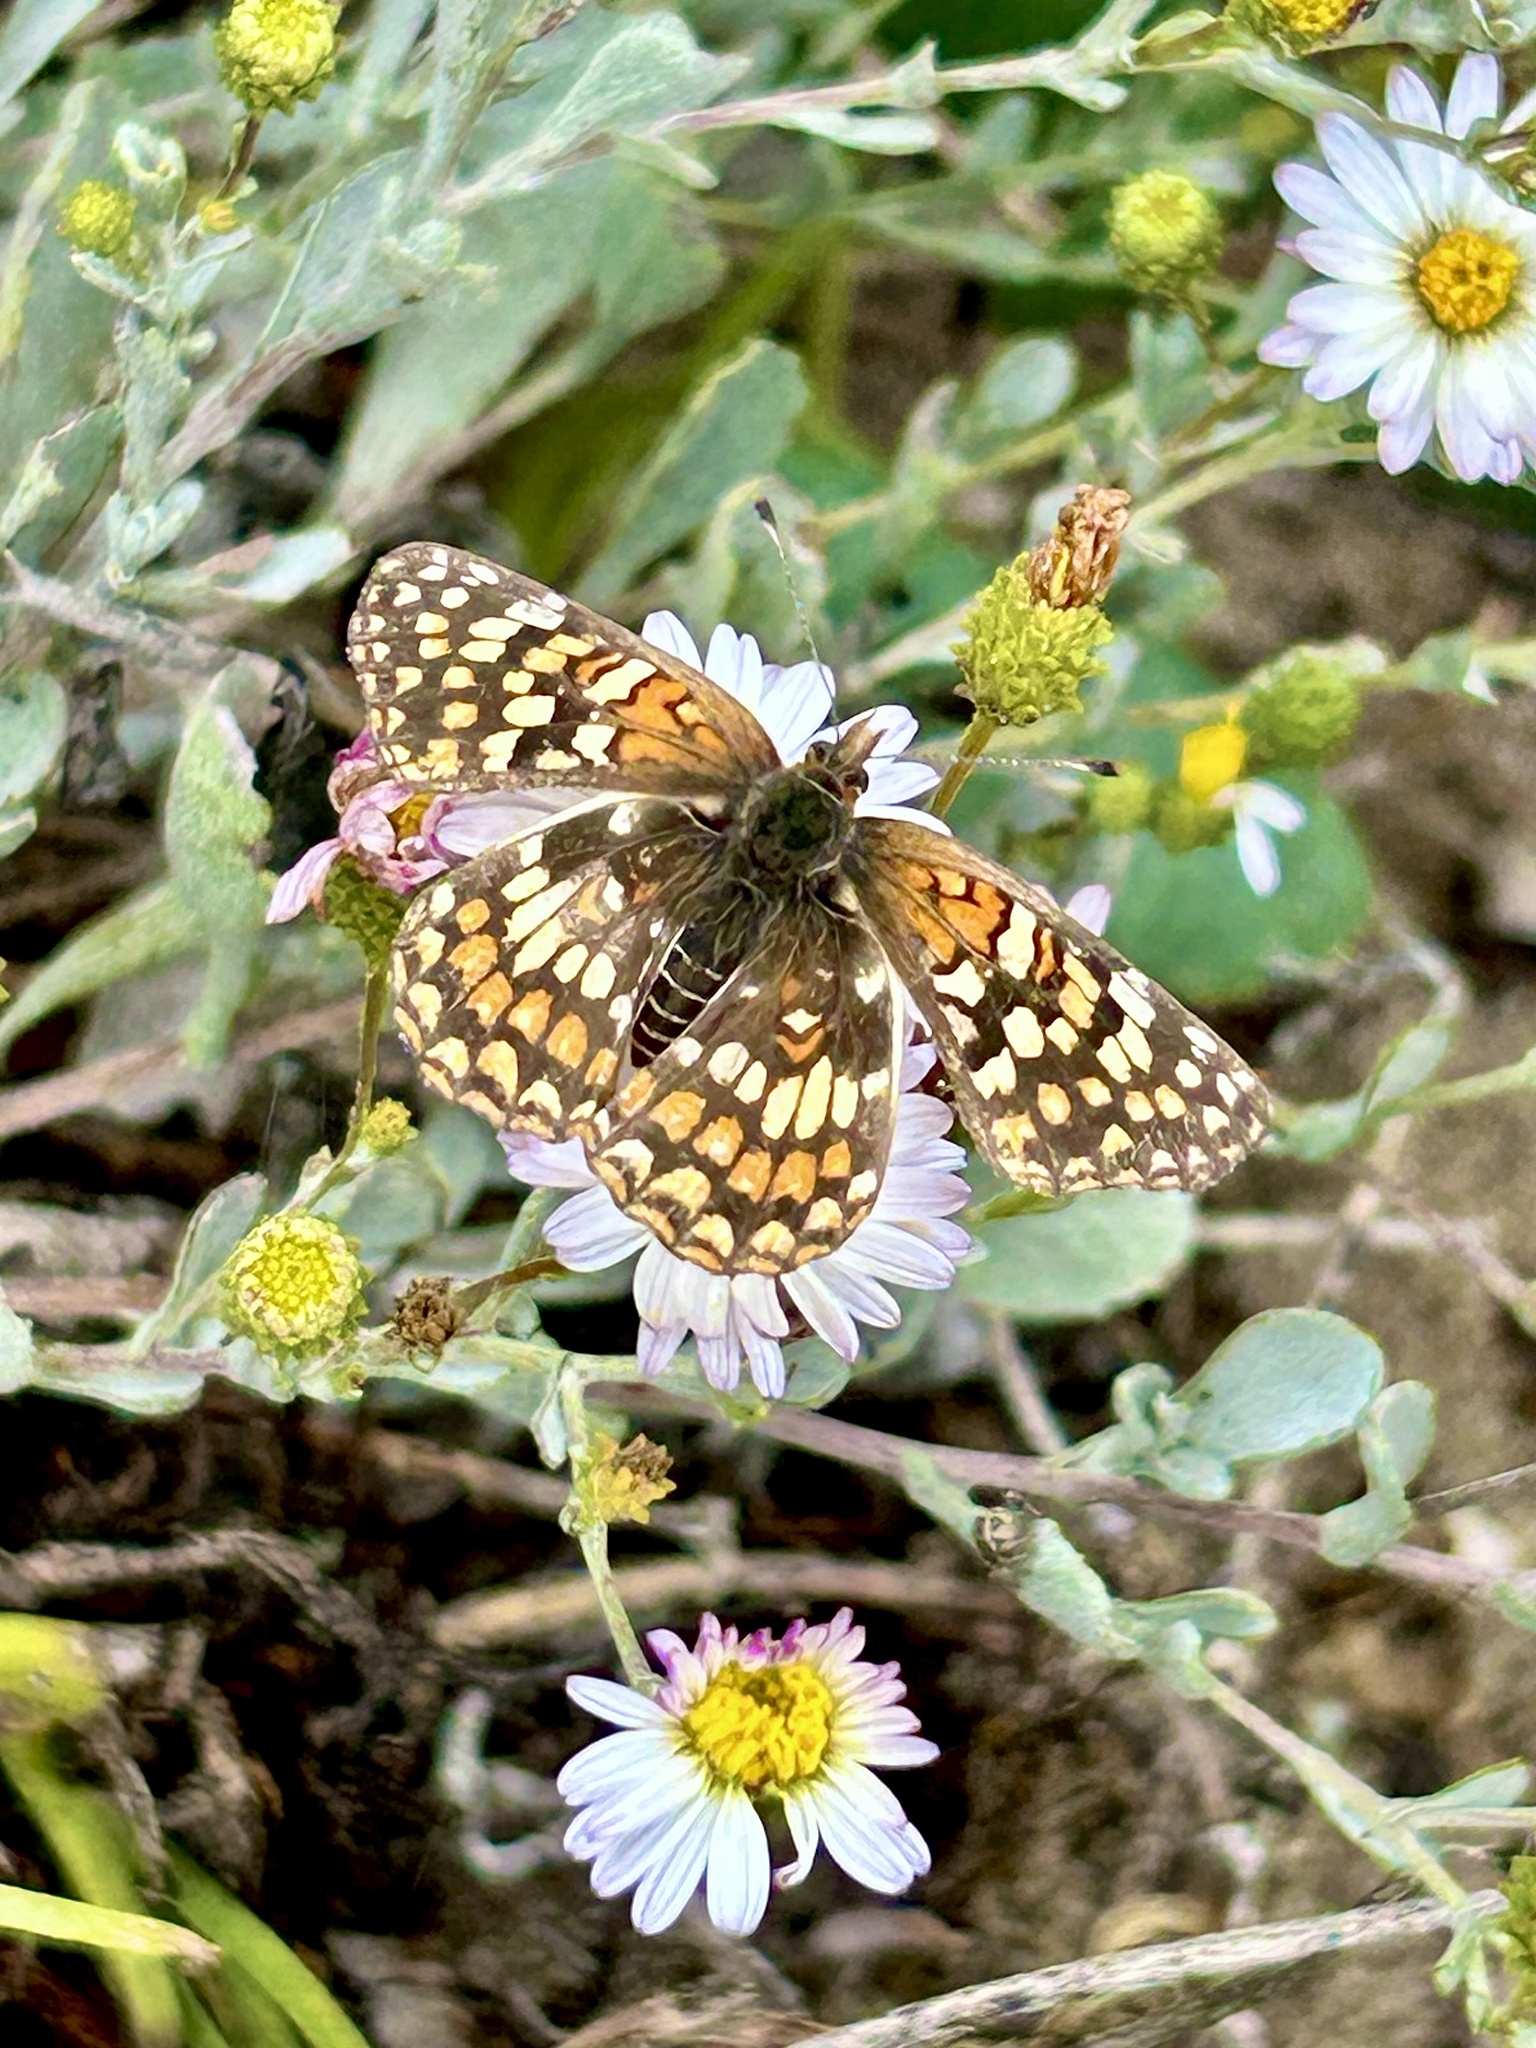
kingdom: Animalia
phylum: Arthropoda
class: Insecta
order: Lepidoptera
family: Nymphalidae
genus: Chlosyne
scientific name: Chlosyne gabbii
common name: Gabb's checkerspot
